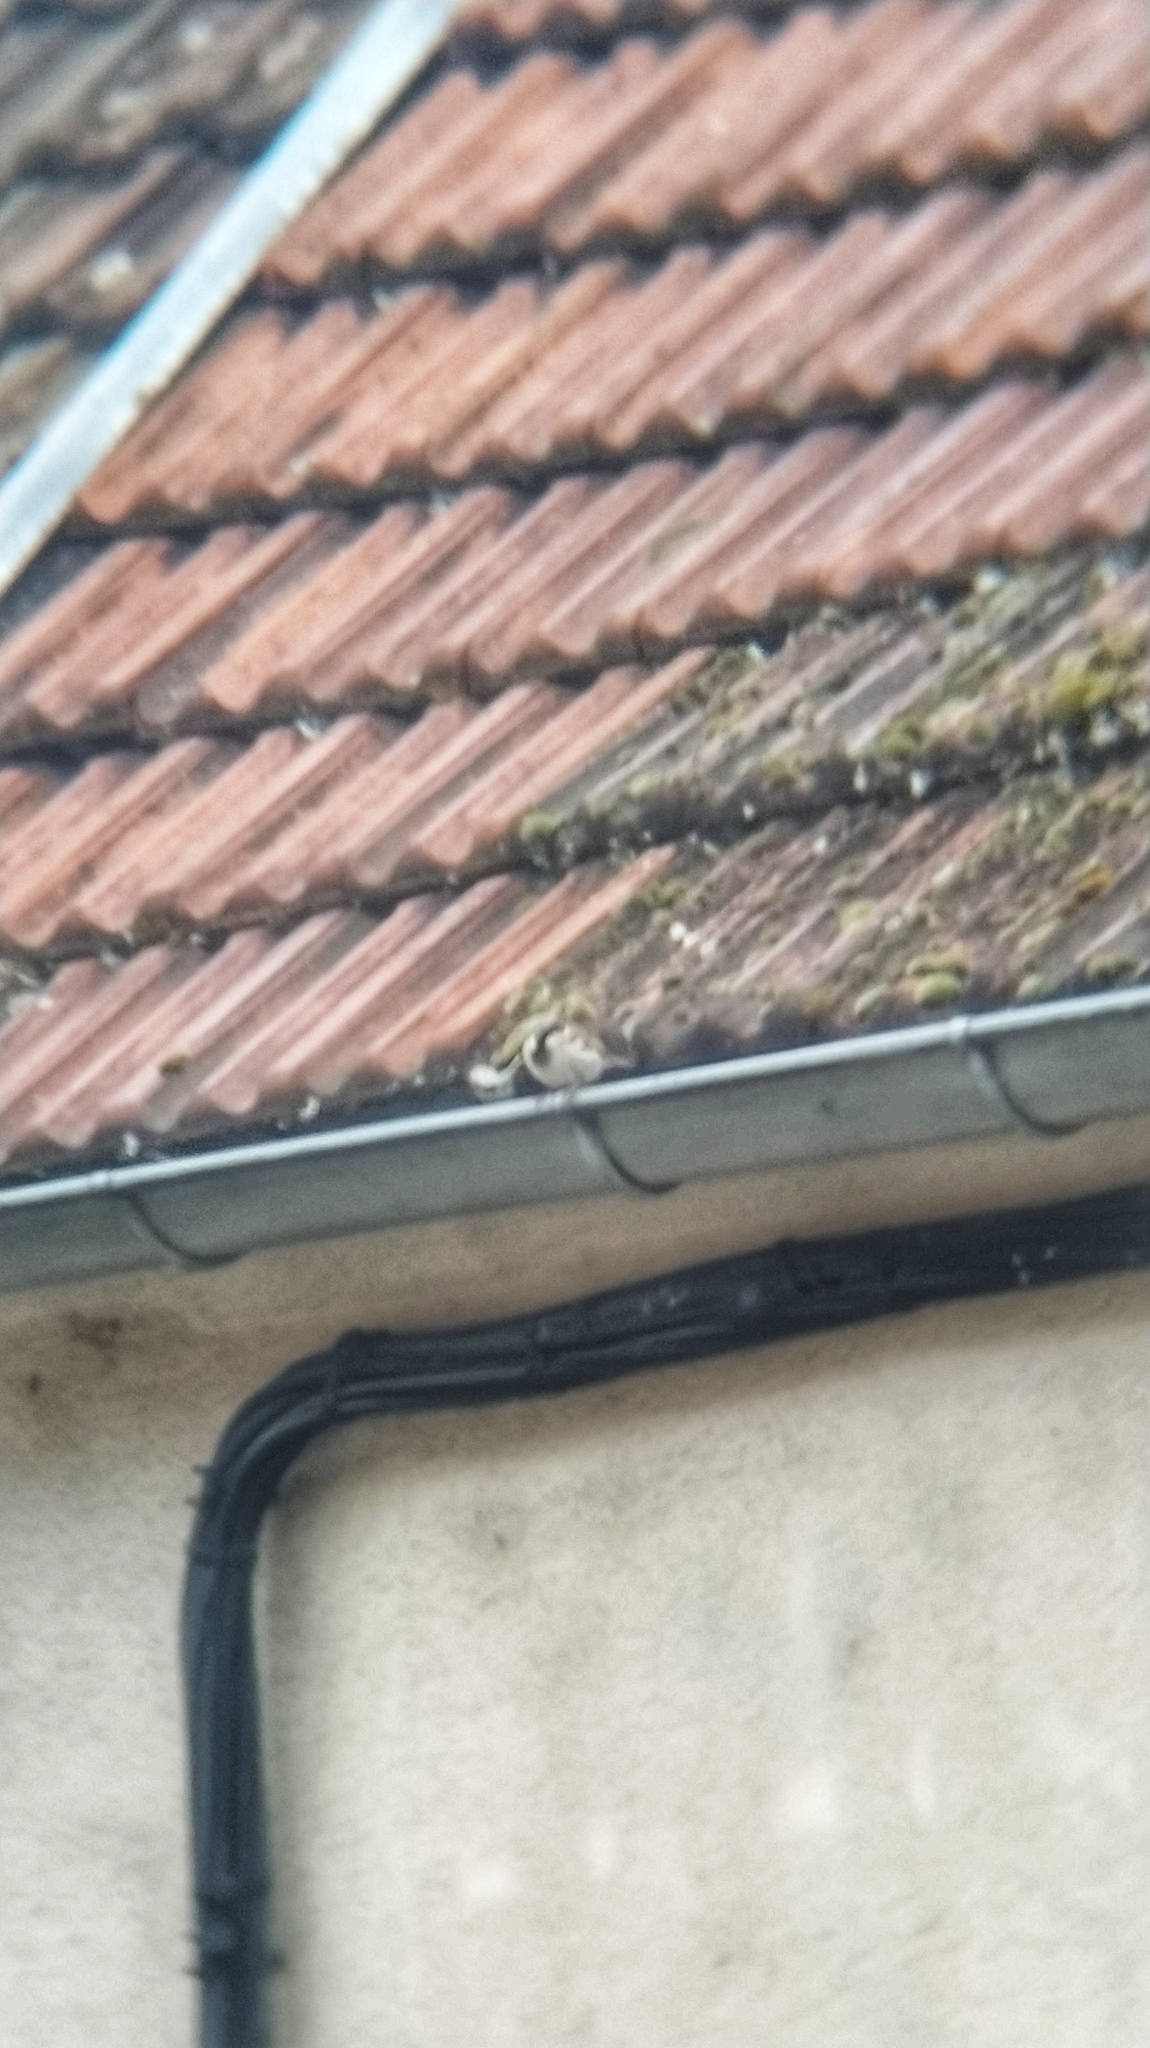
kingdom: Animalia
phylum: Chordata
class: Aves
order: Passeriformes
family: Passeridae
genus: Passer
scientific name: Passer domesticus
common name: House sparrow
